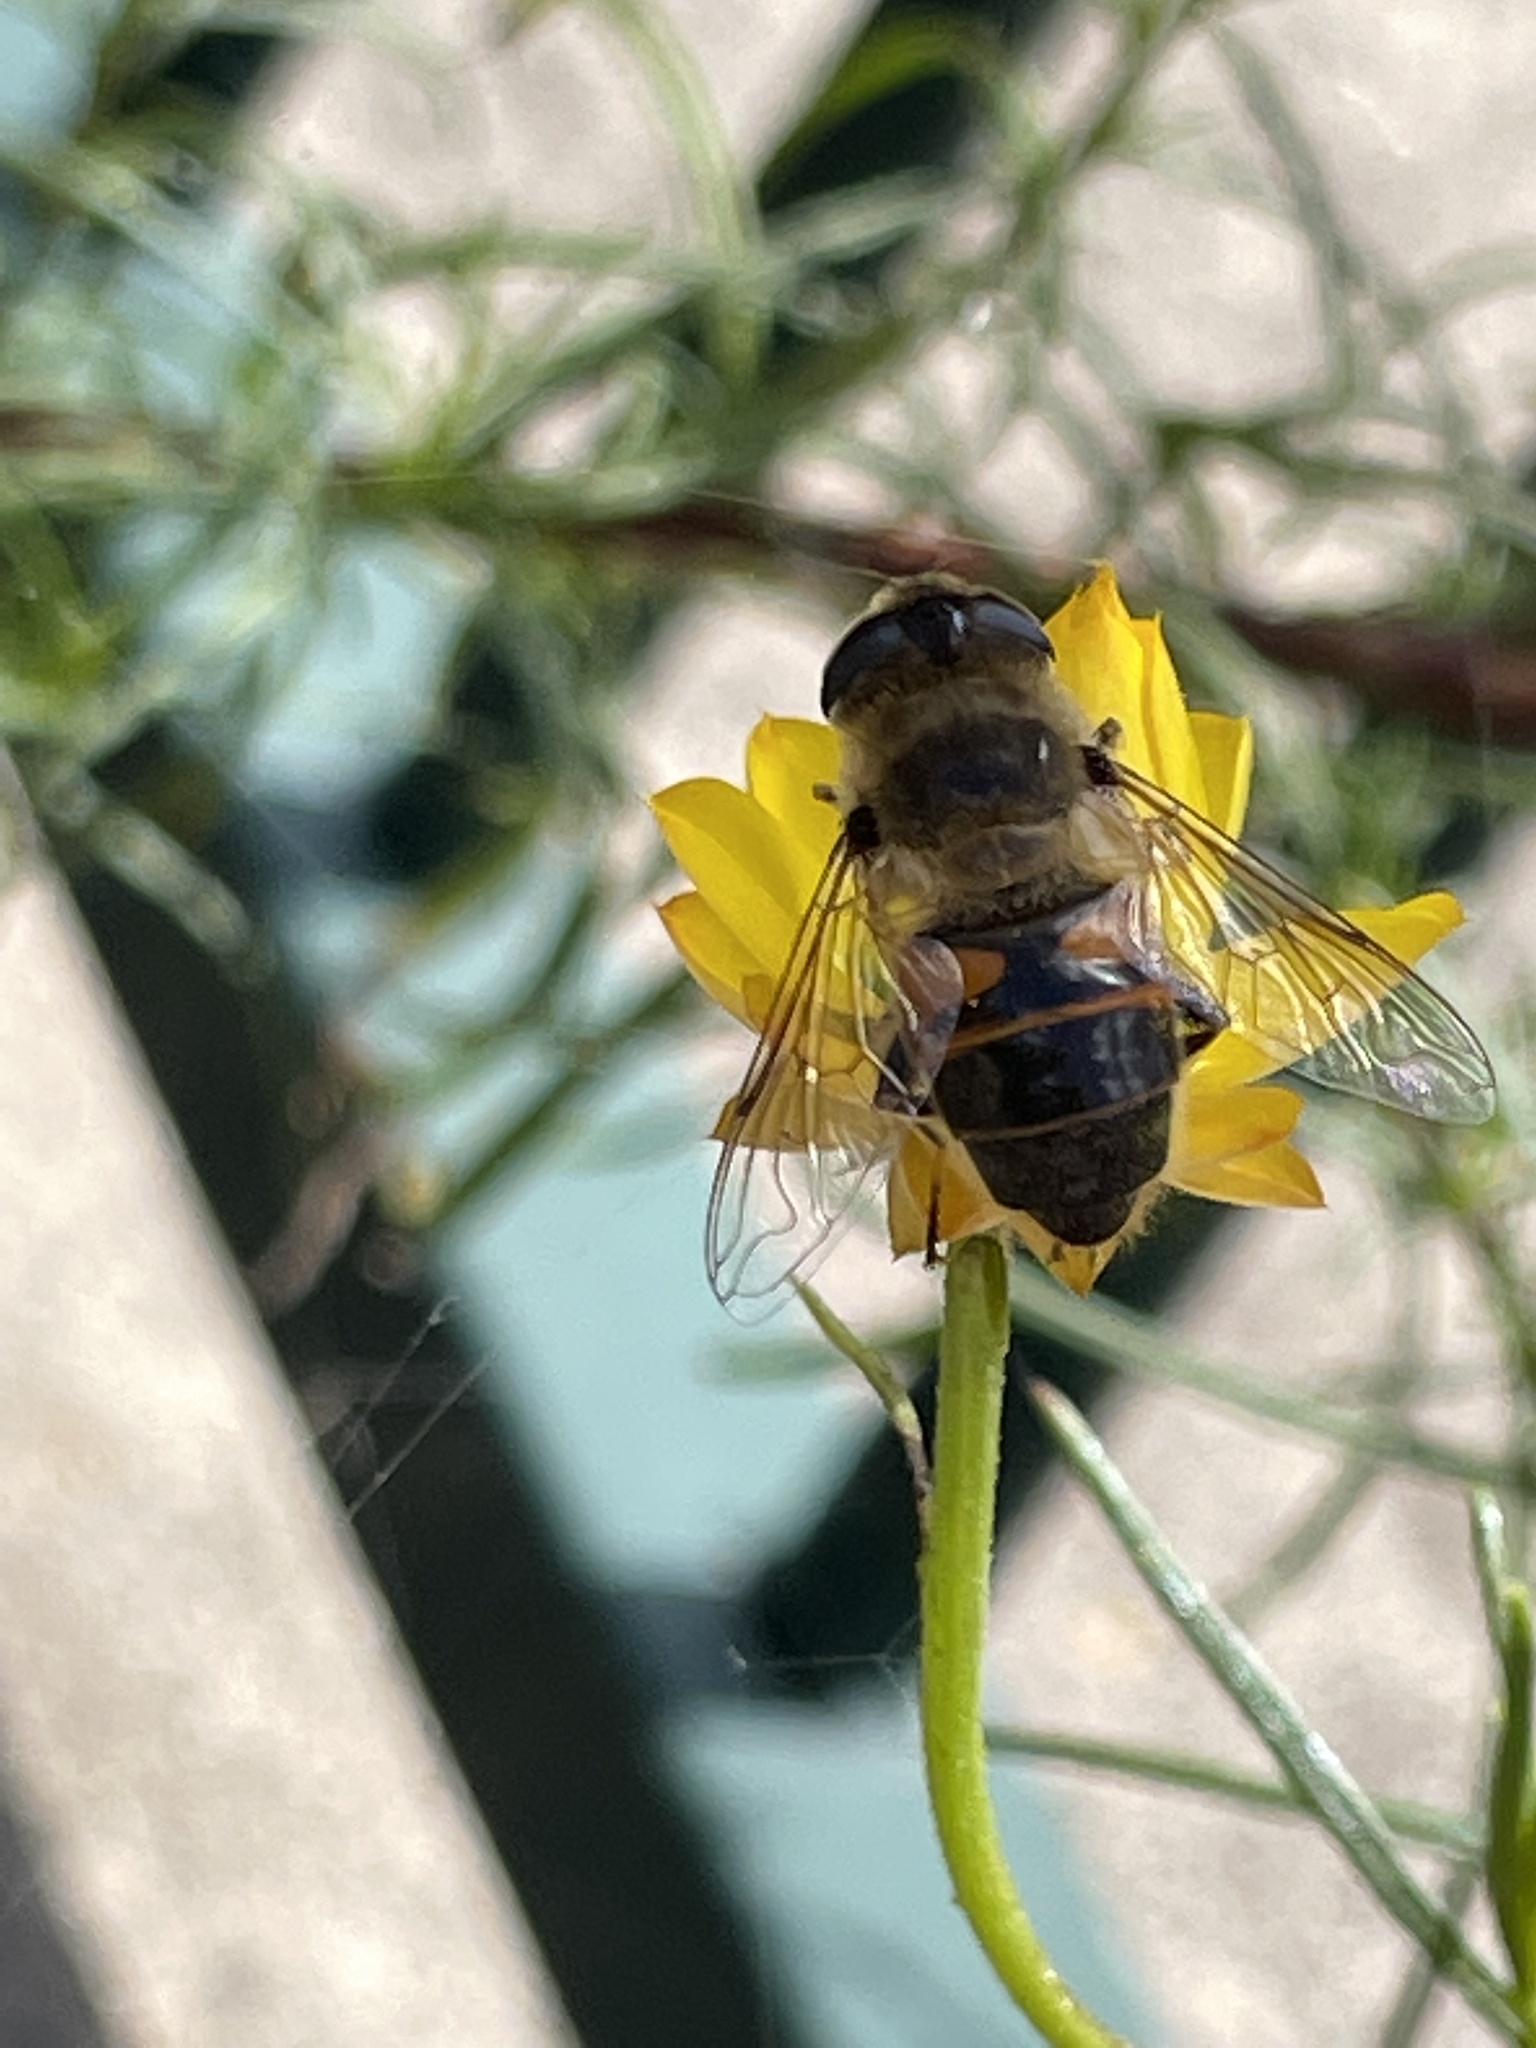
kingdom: Animalia
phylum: Arthropoda
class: Insecta
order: Diptera
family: Syrphidae
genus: Eristalis
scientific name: Eristalis tenax
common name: Drone fly
